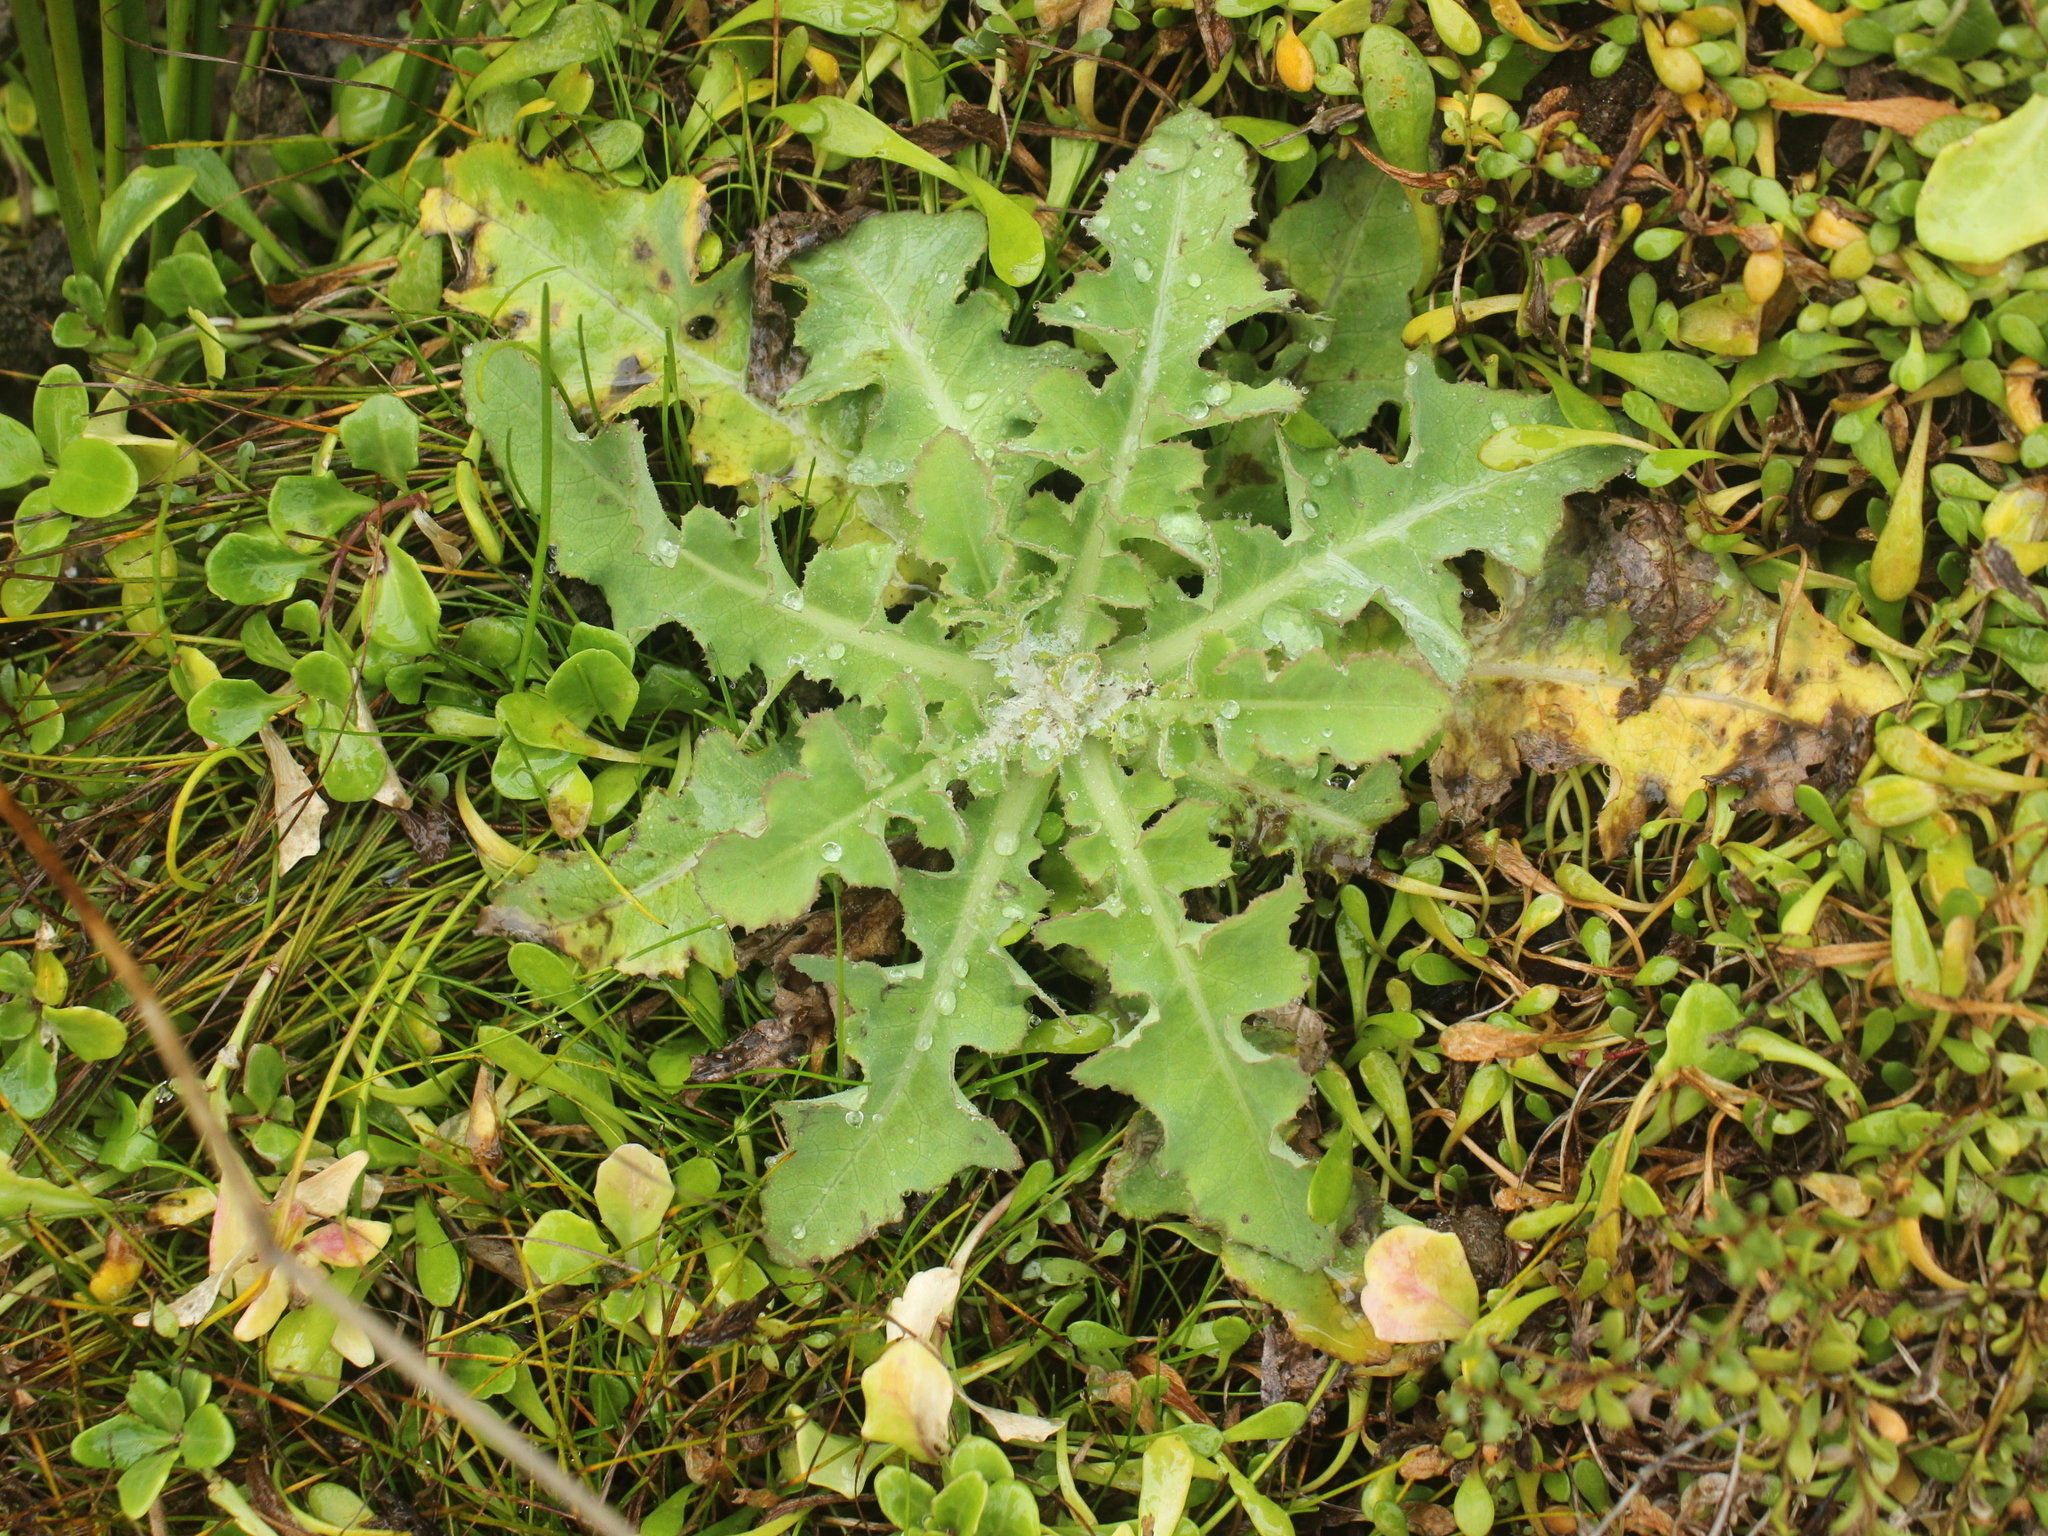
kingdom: Plantae
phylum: Tracheophyta
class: Magnoliopsida
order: Asterales
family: Asteraceae
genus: Sonchus
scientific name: Sonchus kirkii
